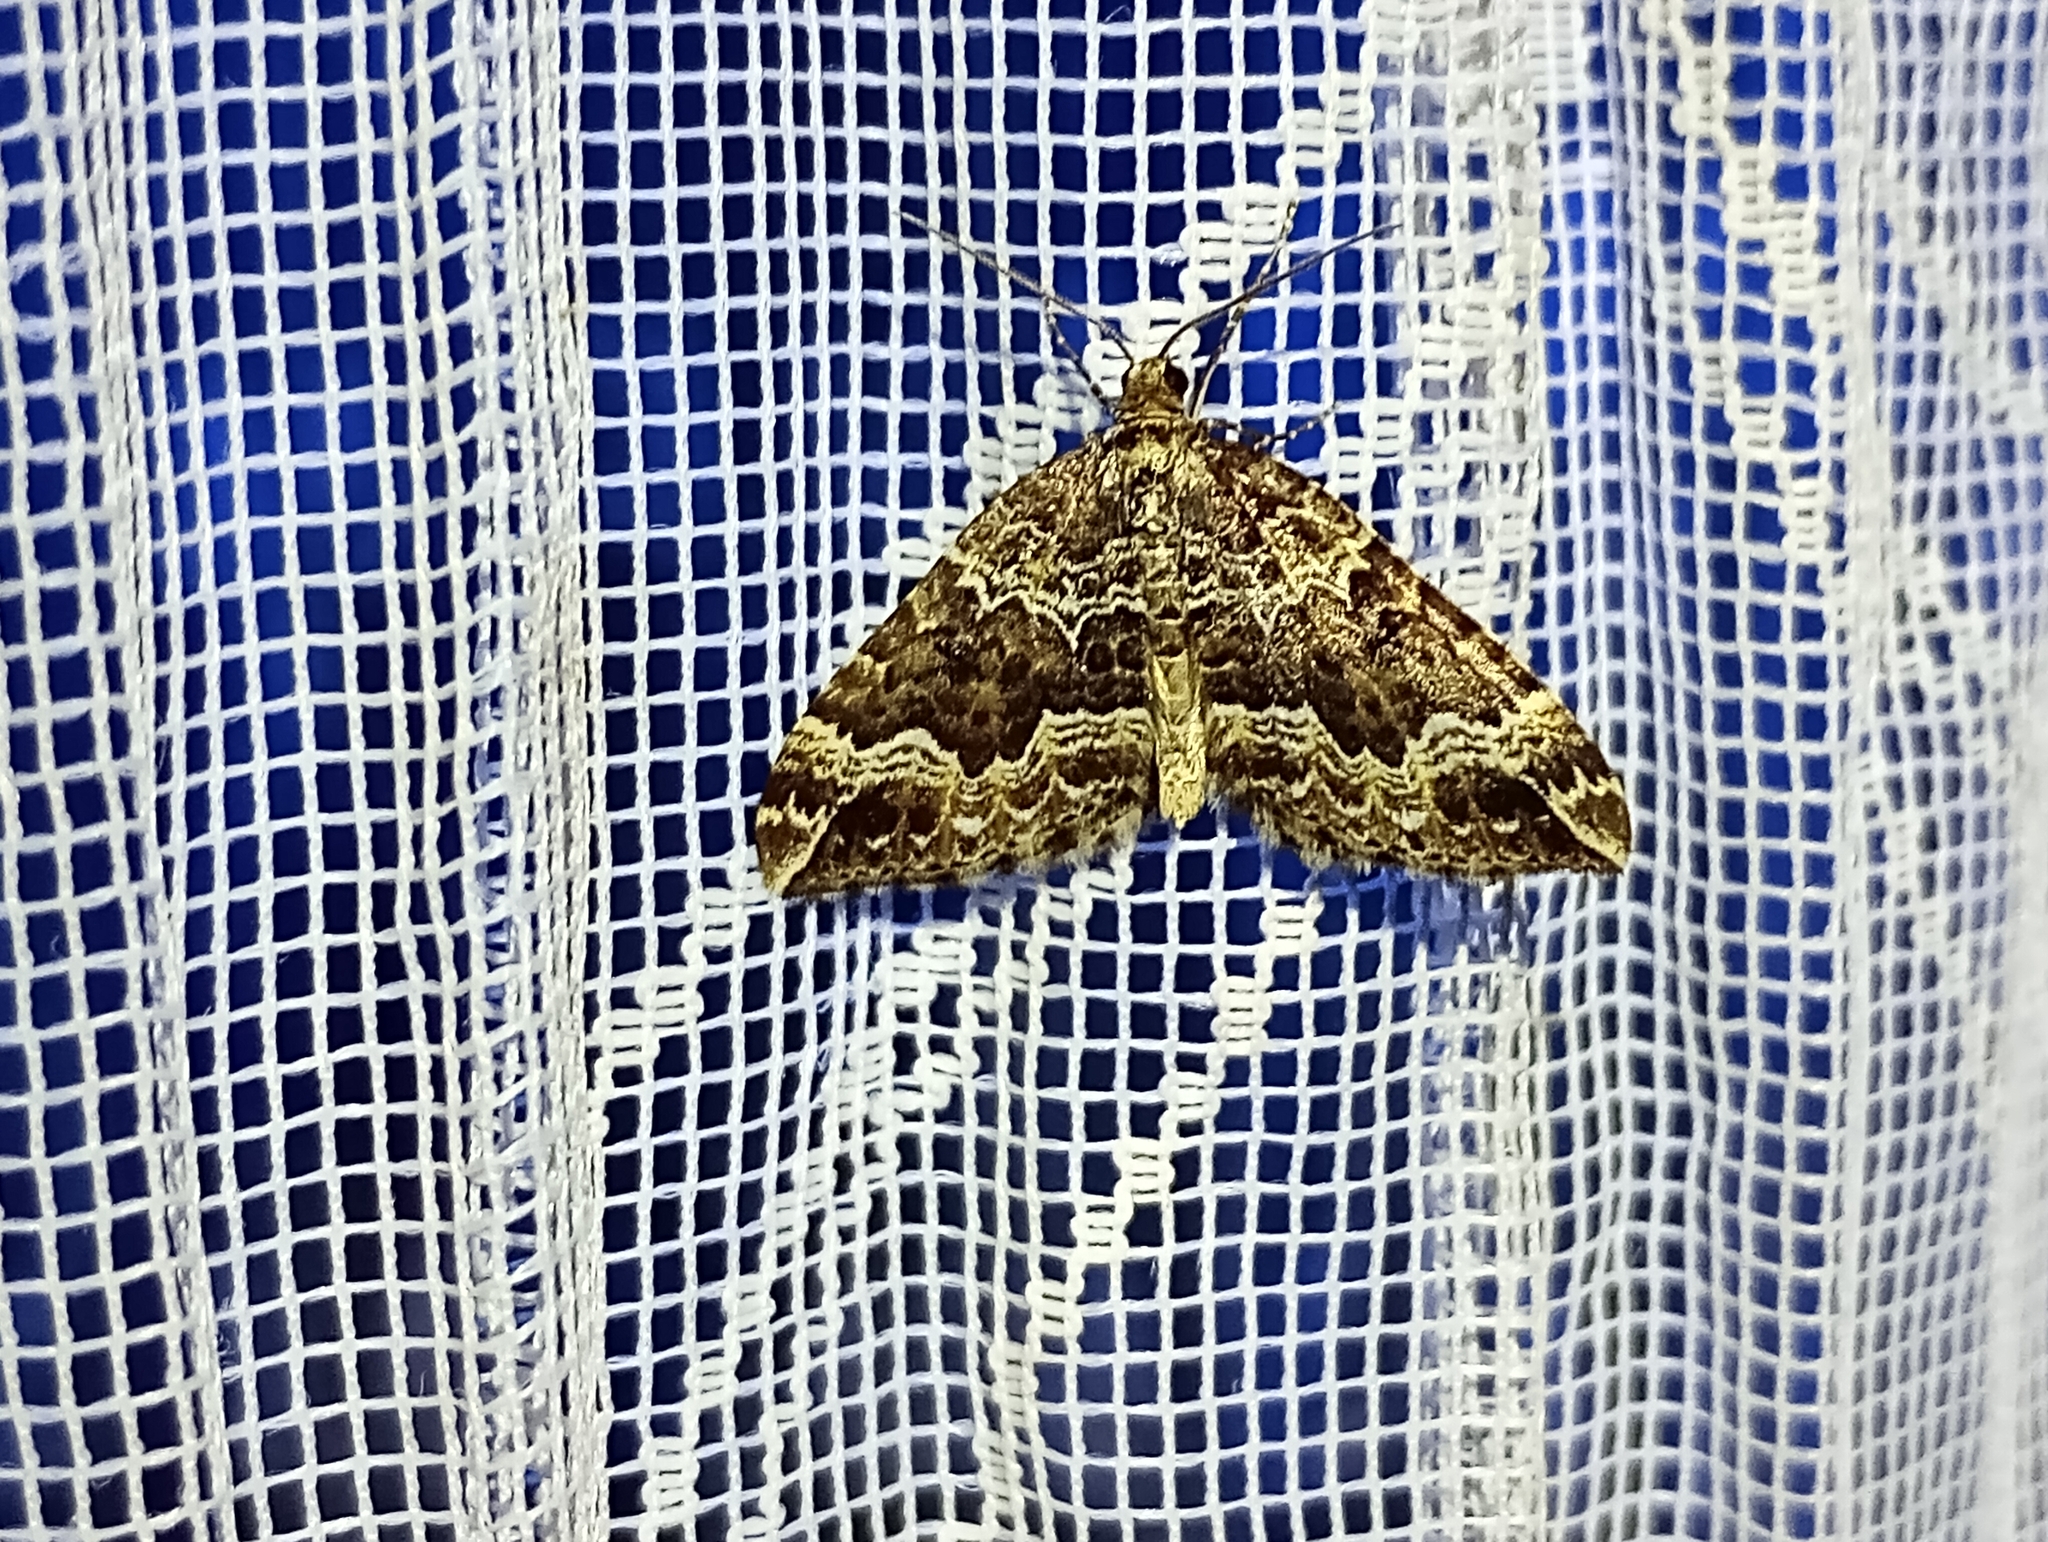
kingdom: Animalia
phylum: Arthropoda
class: Insecta
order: Lepidoptera
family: Geometridae
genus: Lampropteryx
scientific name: Lampropteryx suffumata
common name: Water carpet
